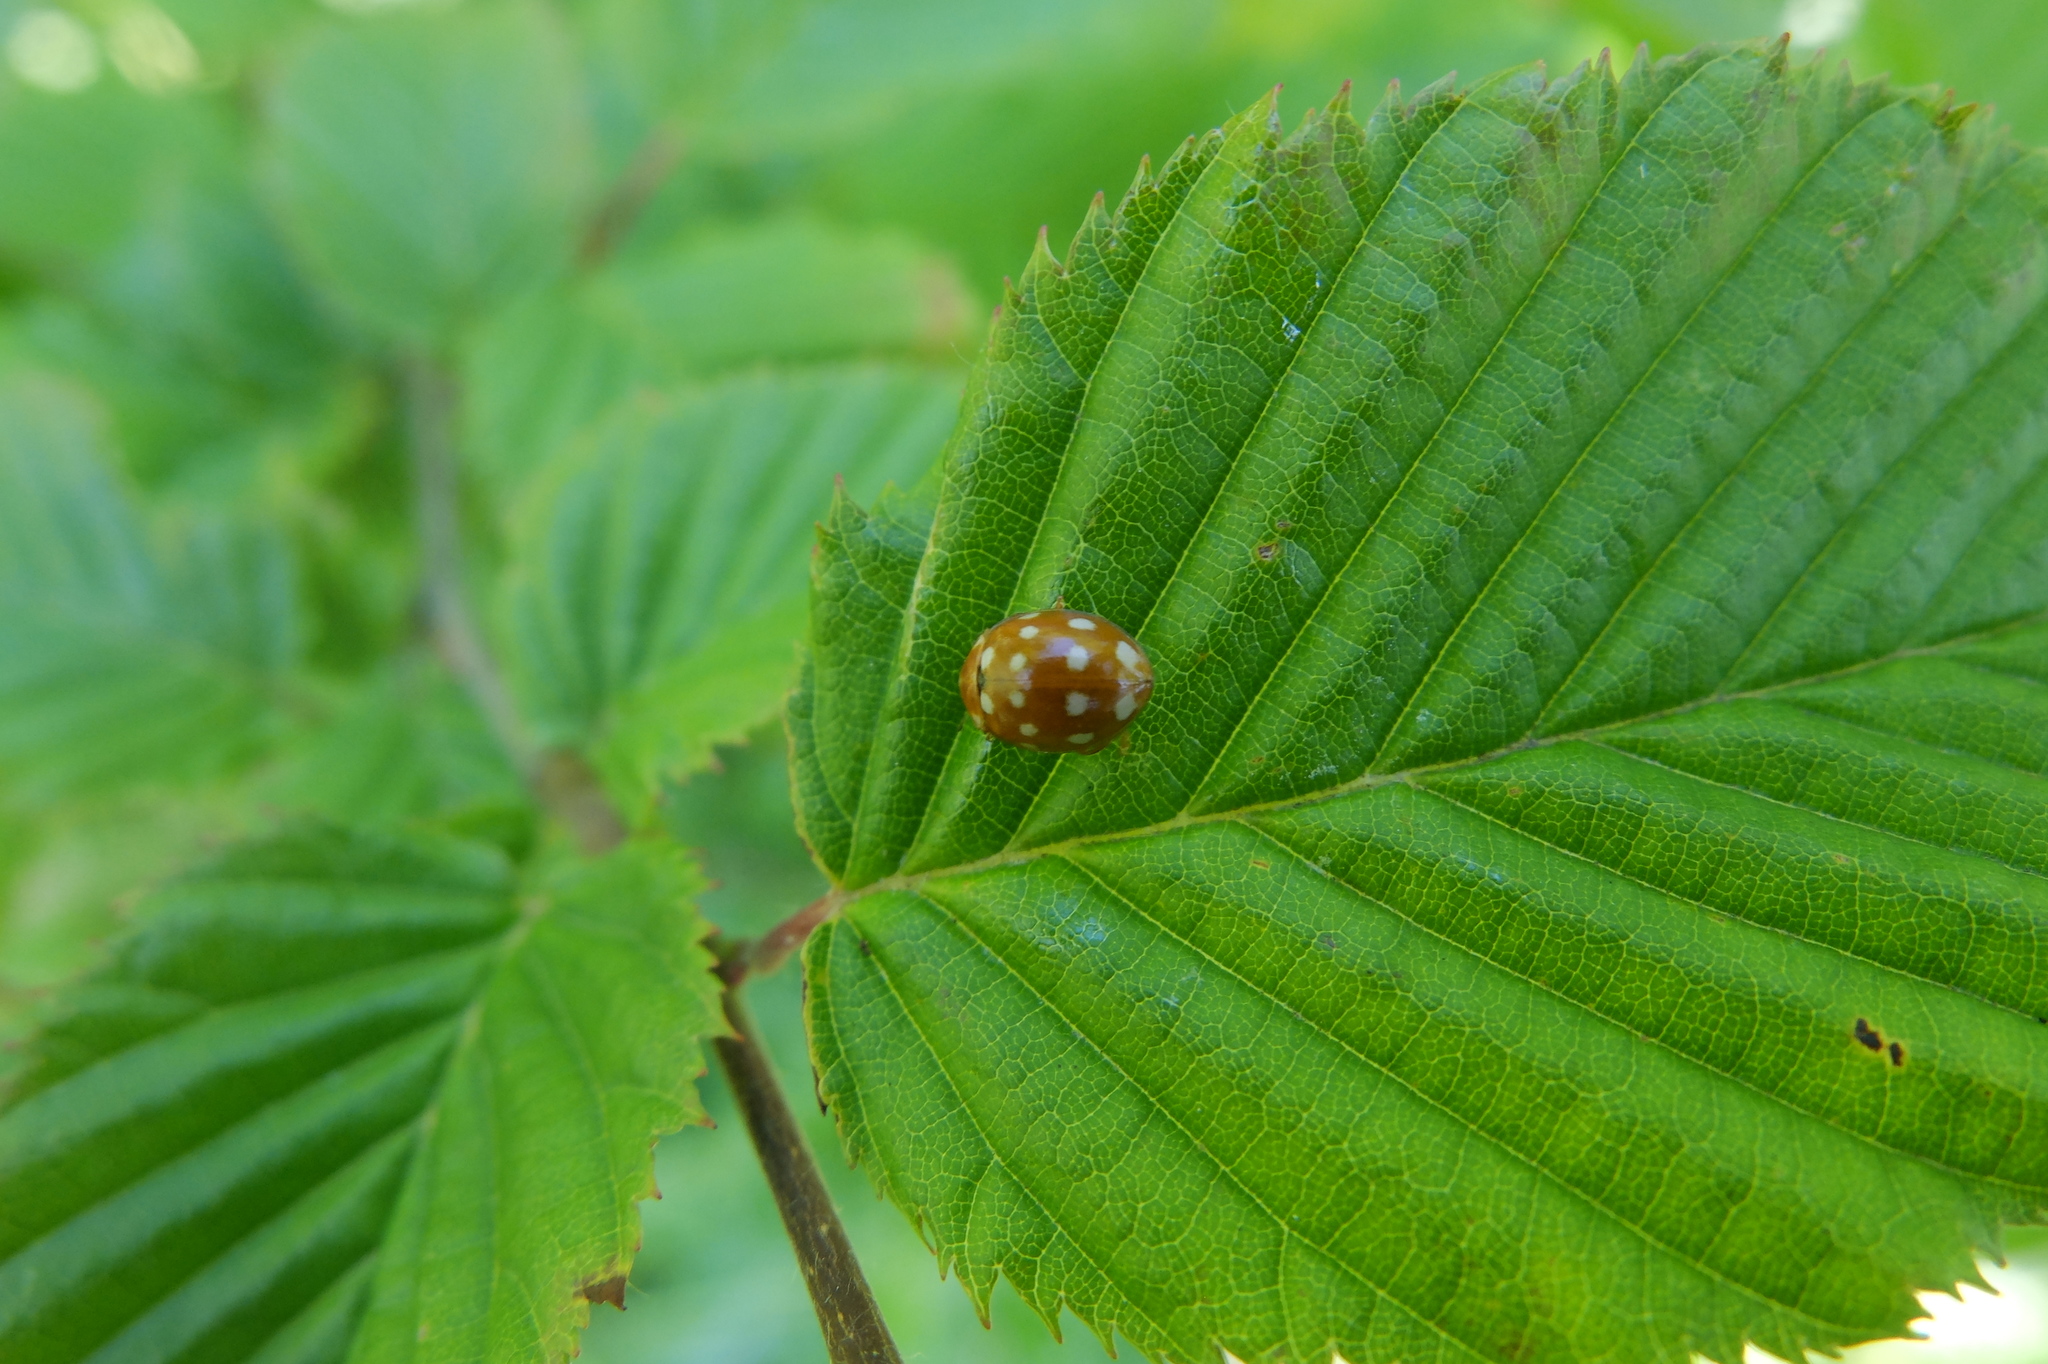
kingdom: Animalia
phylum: Arthropoda
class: Insecta
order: Coleoptera
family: Coccinellidae
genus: Calvia
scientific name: Calvia quatuordecimguttata
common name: Cream-spot ladybird
